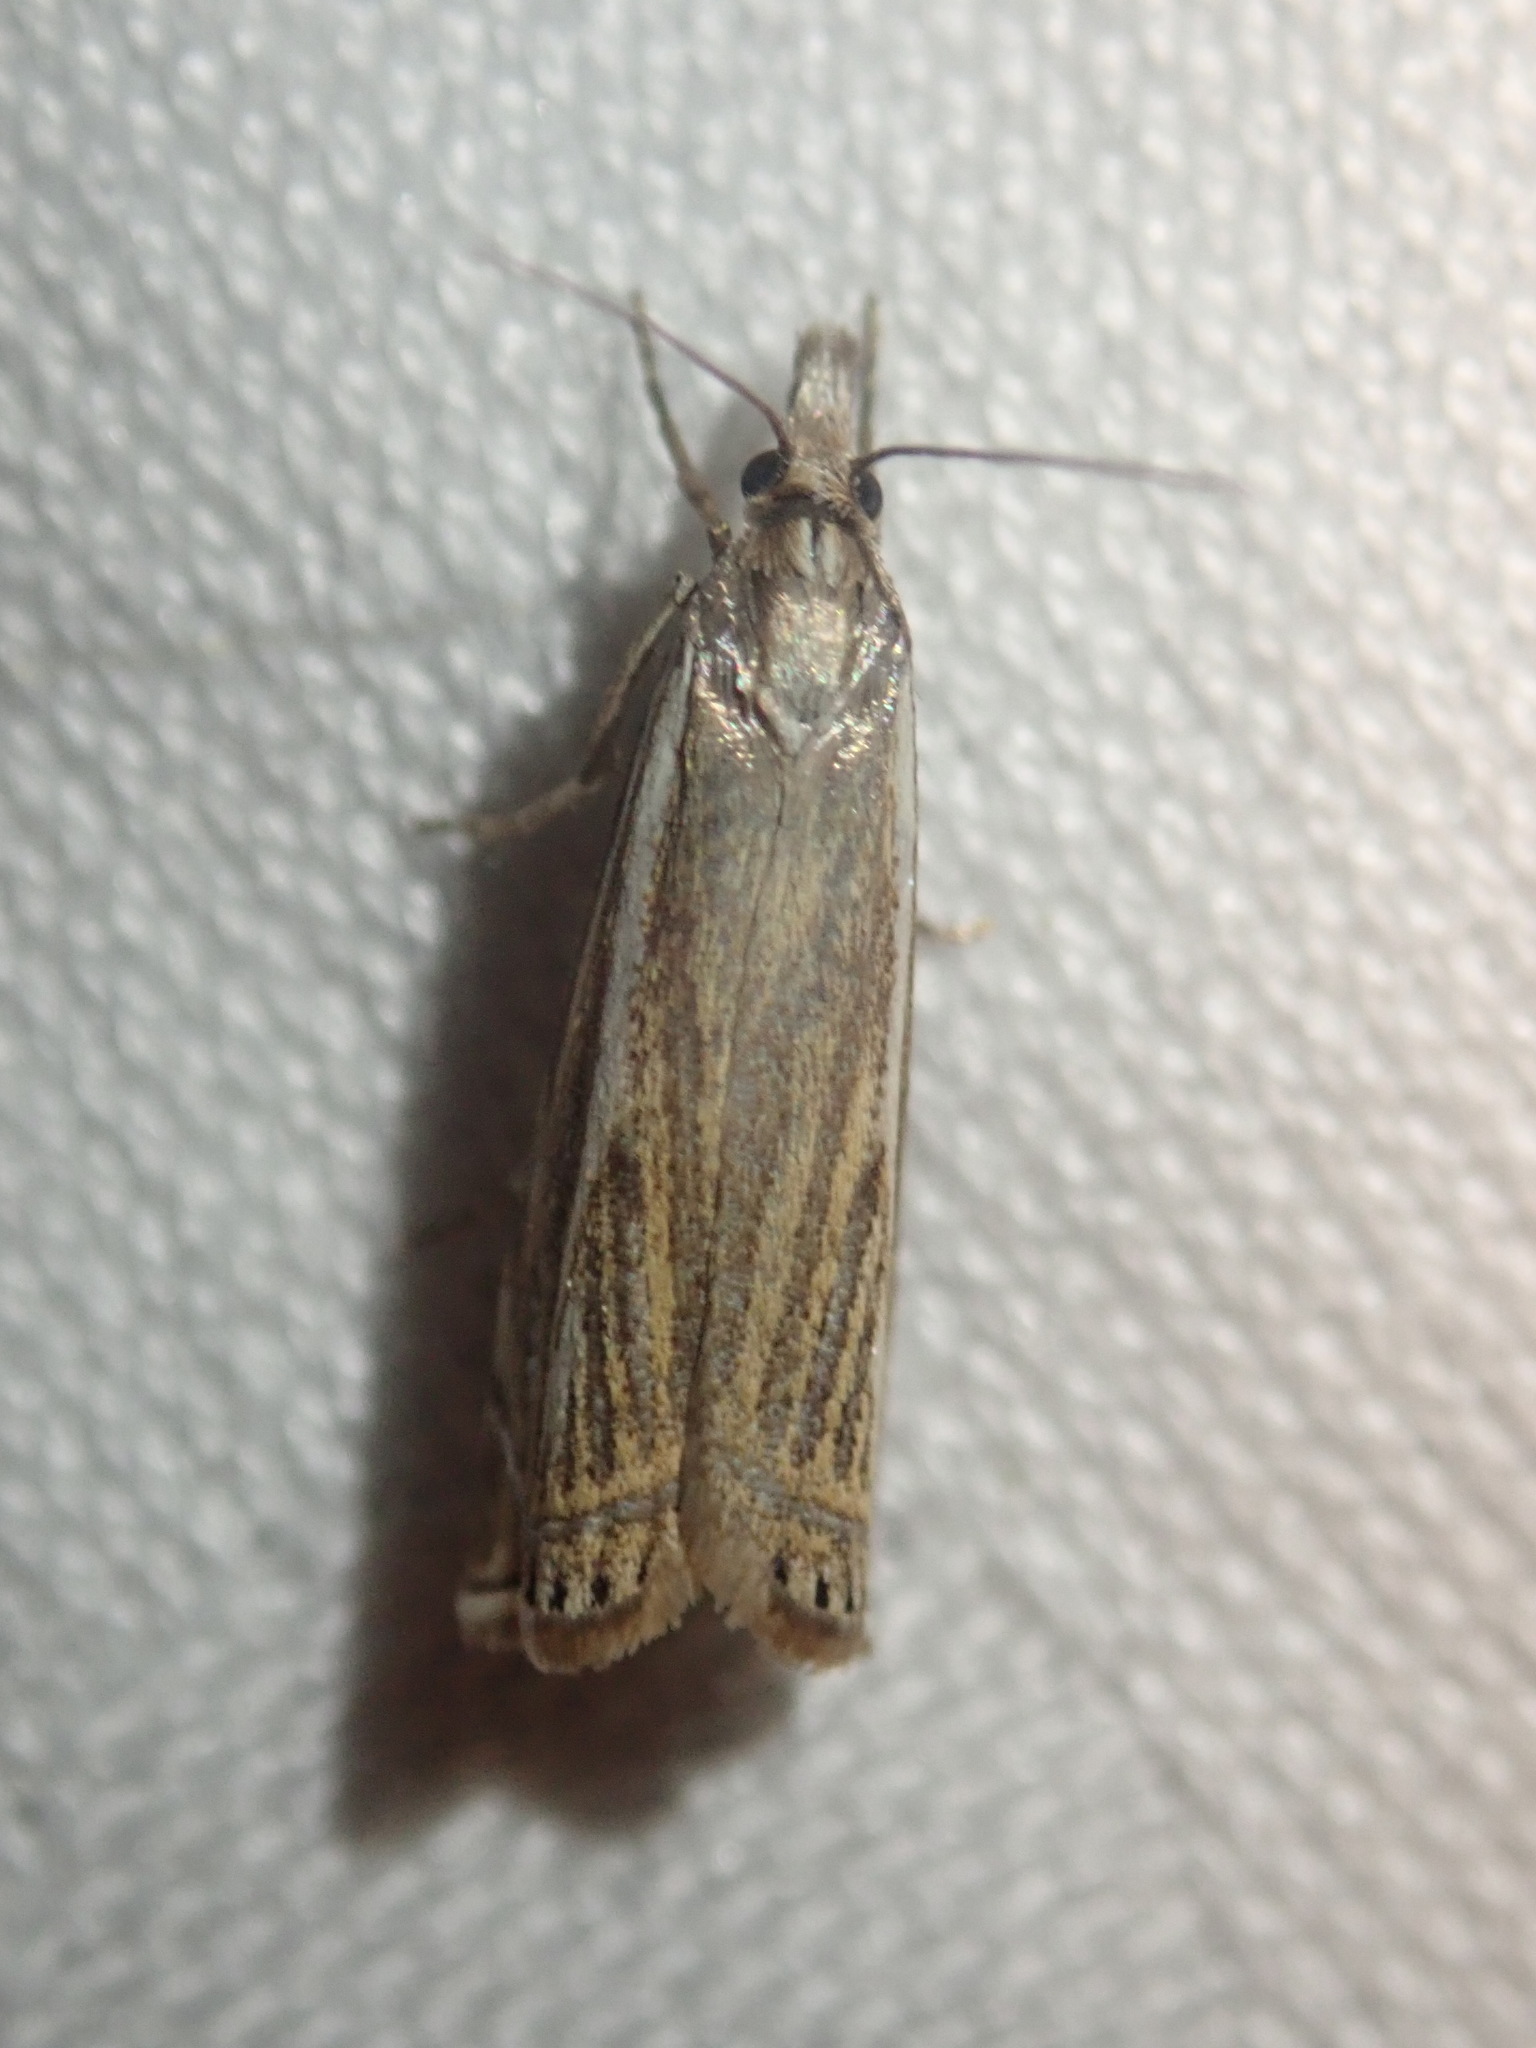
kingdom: Animalia
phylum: Arthropoda
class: Insecta
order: Lepidoptera
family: Crambidae
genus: Crambus
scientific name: Crambus nemorella
